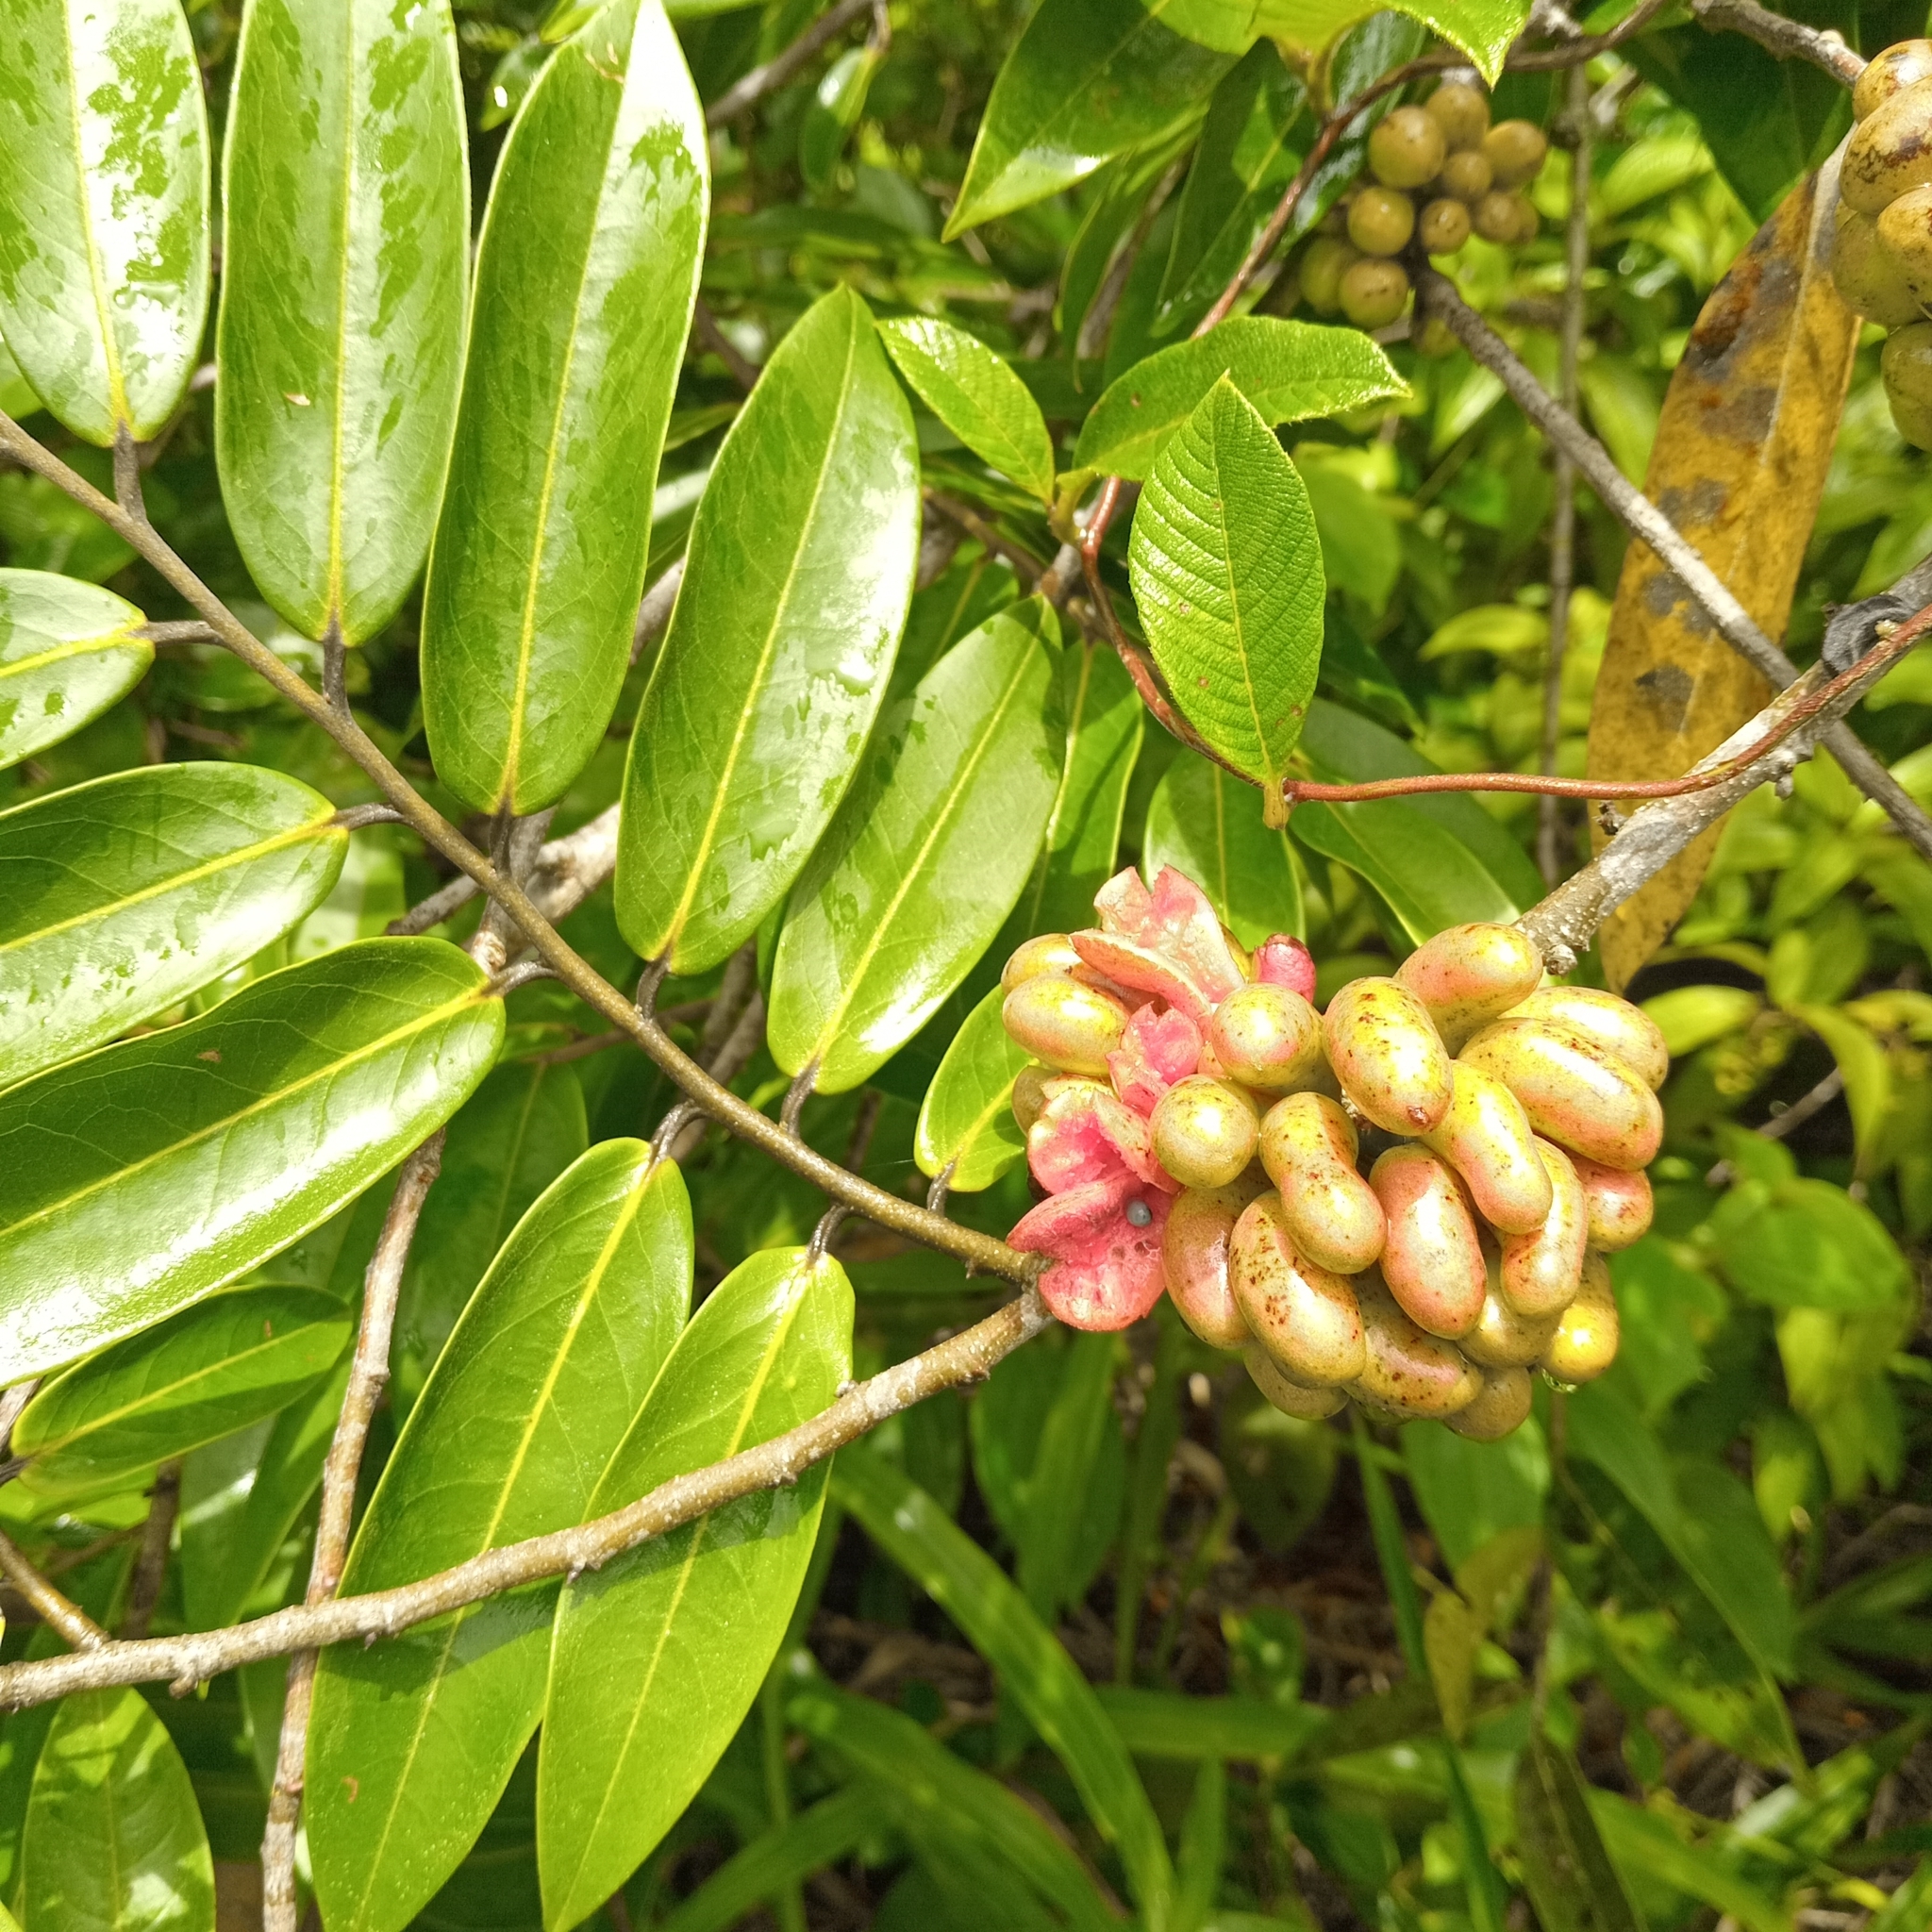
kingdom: Plantae
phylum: Tracheophyta
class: Magnoliopsida
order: Magnoliales
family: Annonaceae
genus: Xylopia
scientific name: Xylopia aromatica
